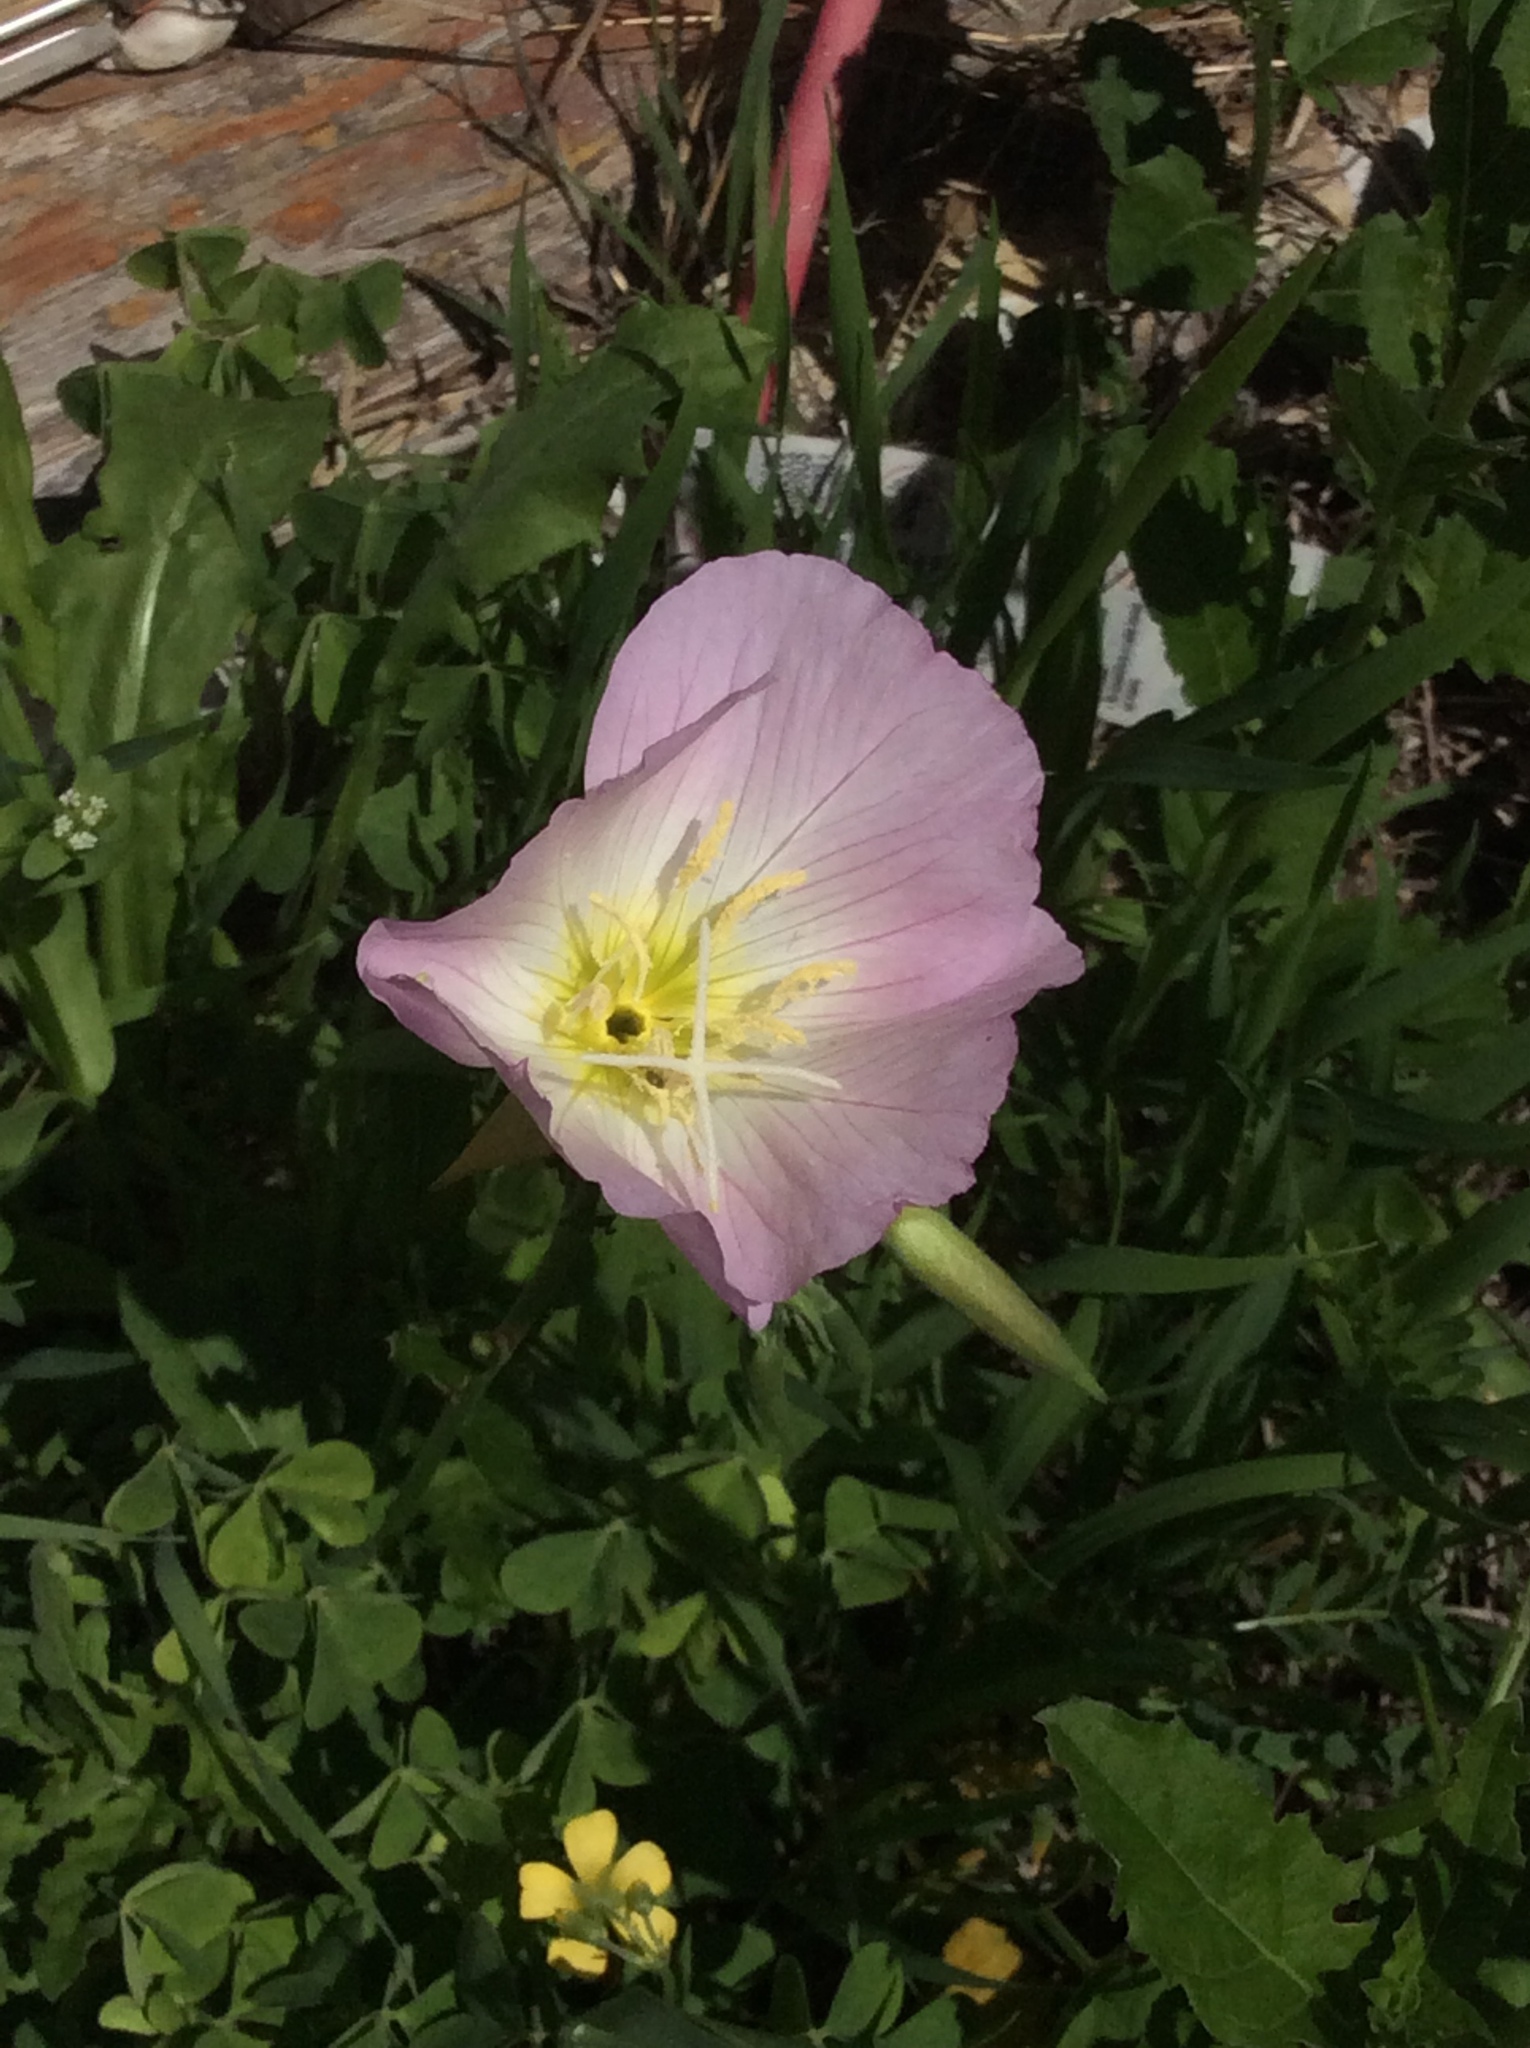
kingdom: Plantae
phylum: Tracheophyta
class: Magnoliopsida
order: Myrtales
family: Onagraceae
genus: Oenothera
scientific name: Oenothera speciosa
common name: White evening-primrose
